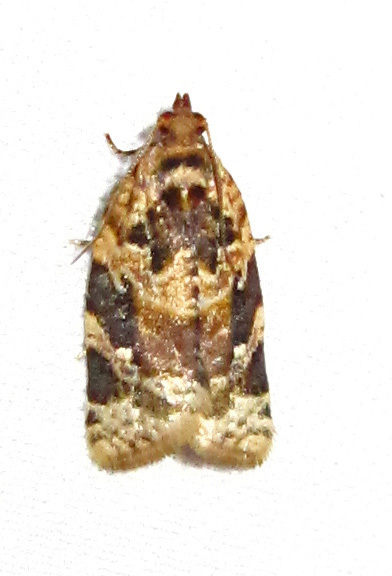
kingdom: Animalia
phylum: Arthropoda
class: Insecta
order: Lepidoptera
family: Tortricidae
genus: Argyrotaenia
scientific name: Argyrotaenia velutinana
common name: Red-banded leafroller moth
